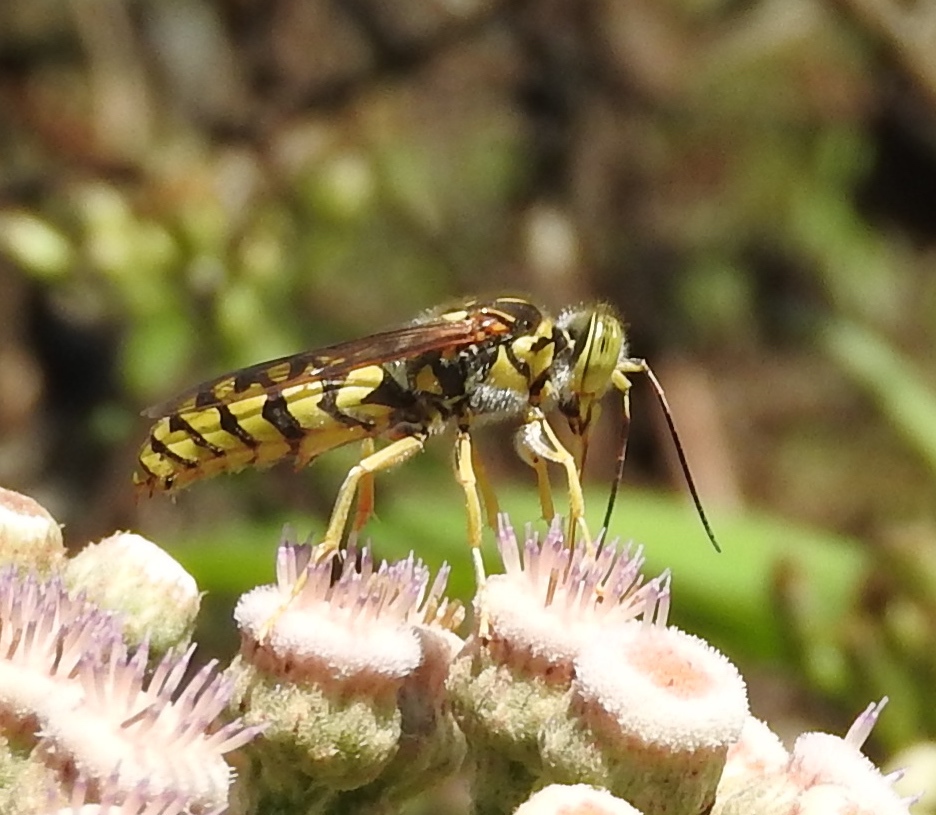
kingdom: Animalia
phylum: Arthropoda
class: Insecta
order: Hymenoptera
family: Crabronidae
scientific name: Crabronidae
